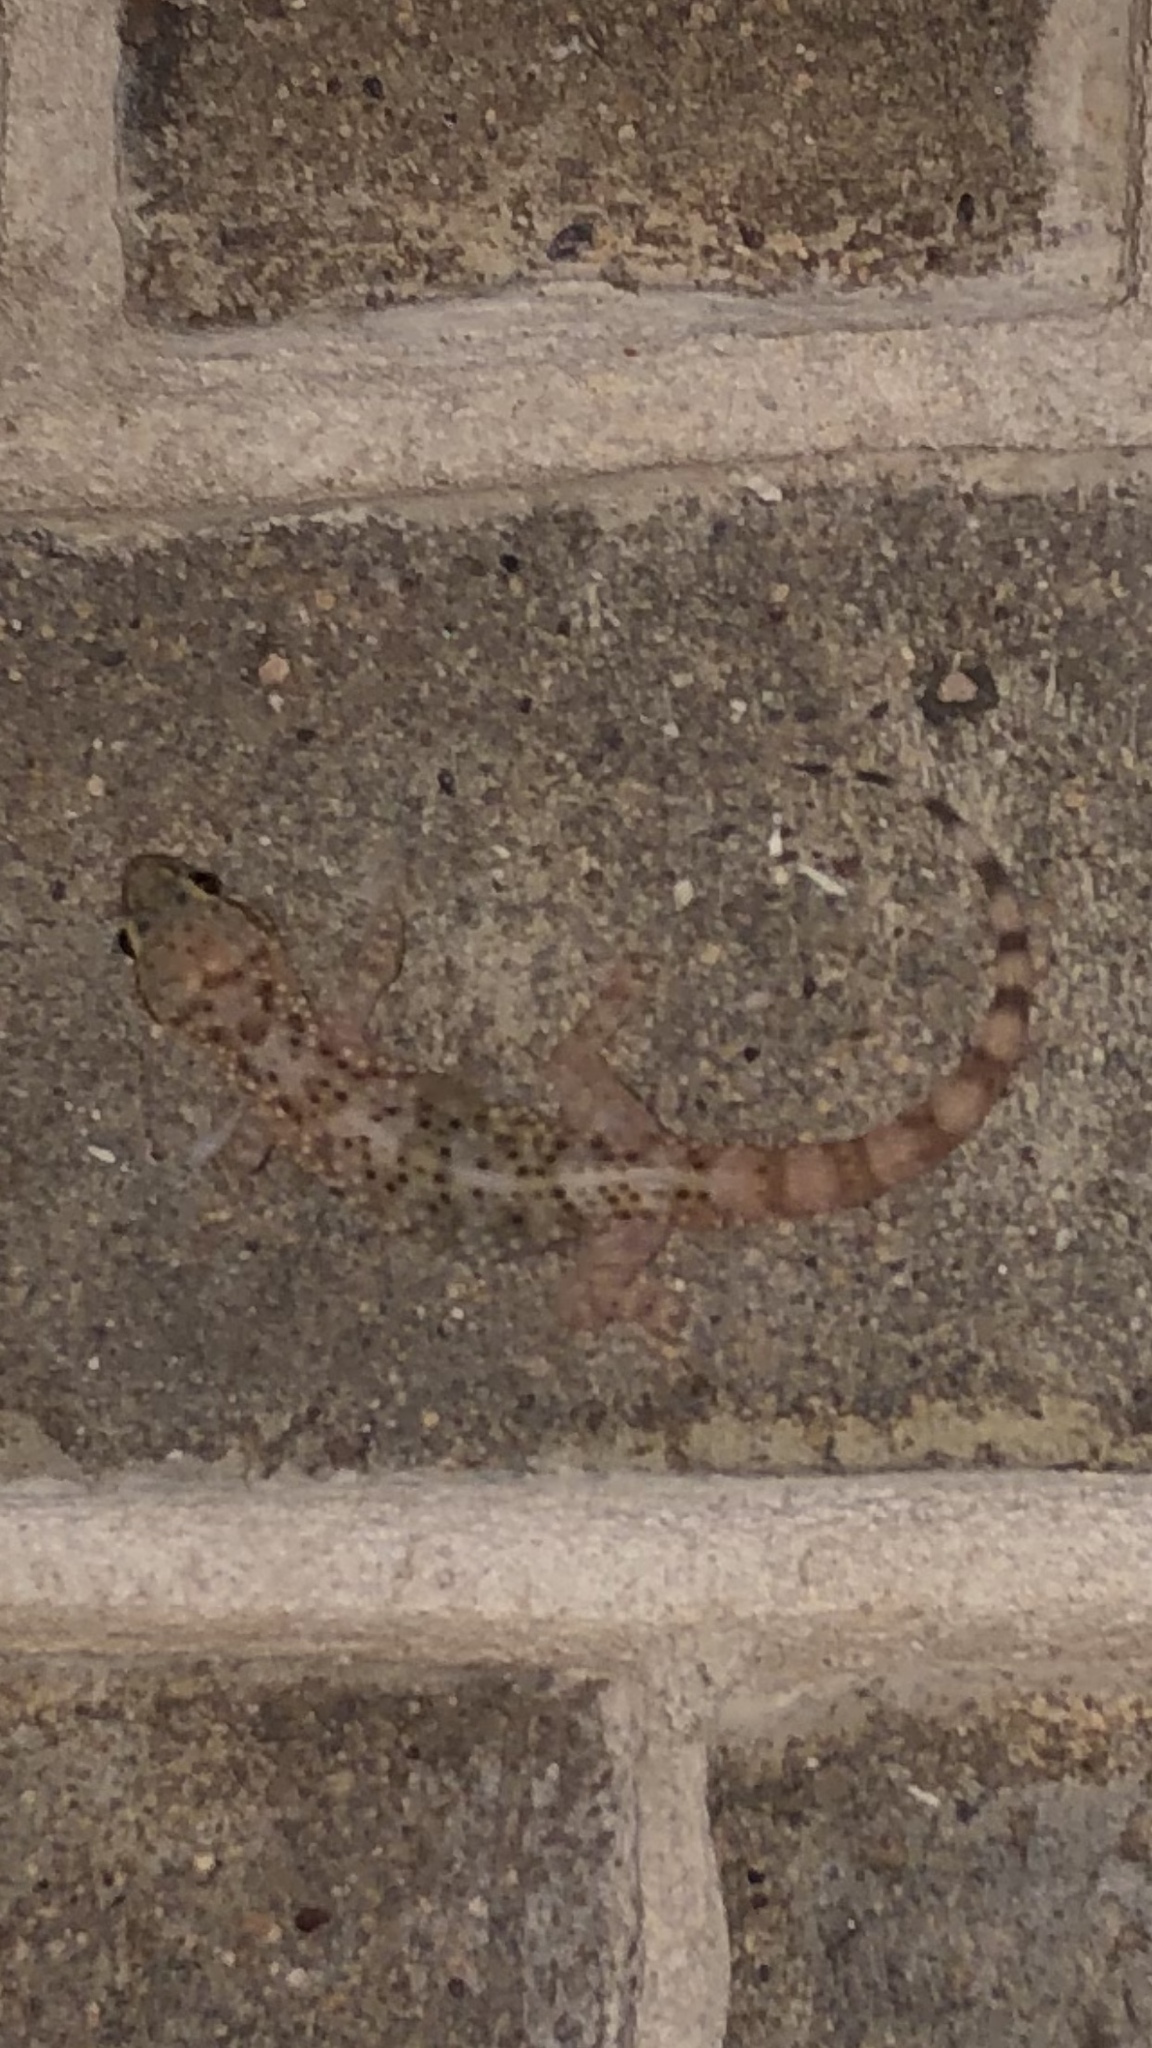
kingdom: Animalia
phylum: Chordata
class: Squamata
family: Gekkonidae
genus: Hemidactylus
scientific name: Hemidactylus turcicus
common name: Turkish gecko
